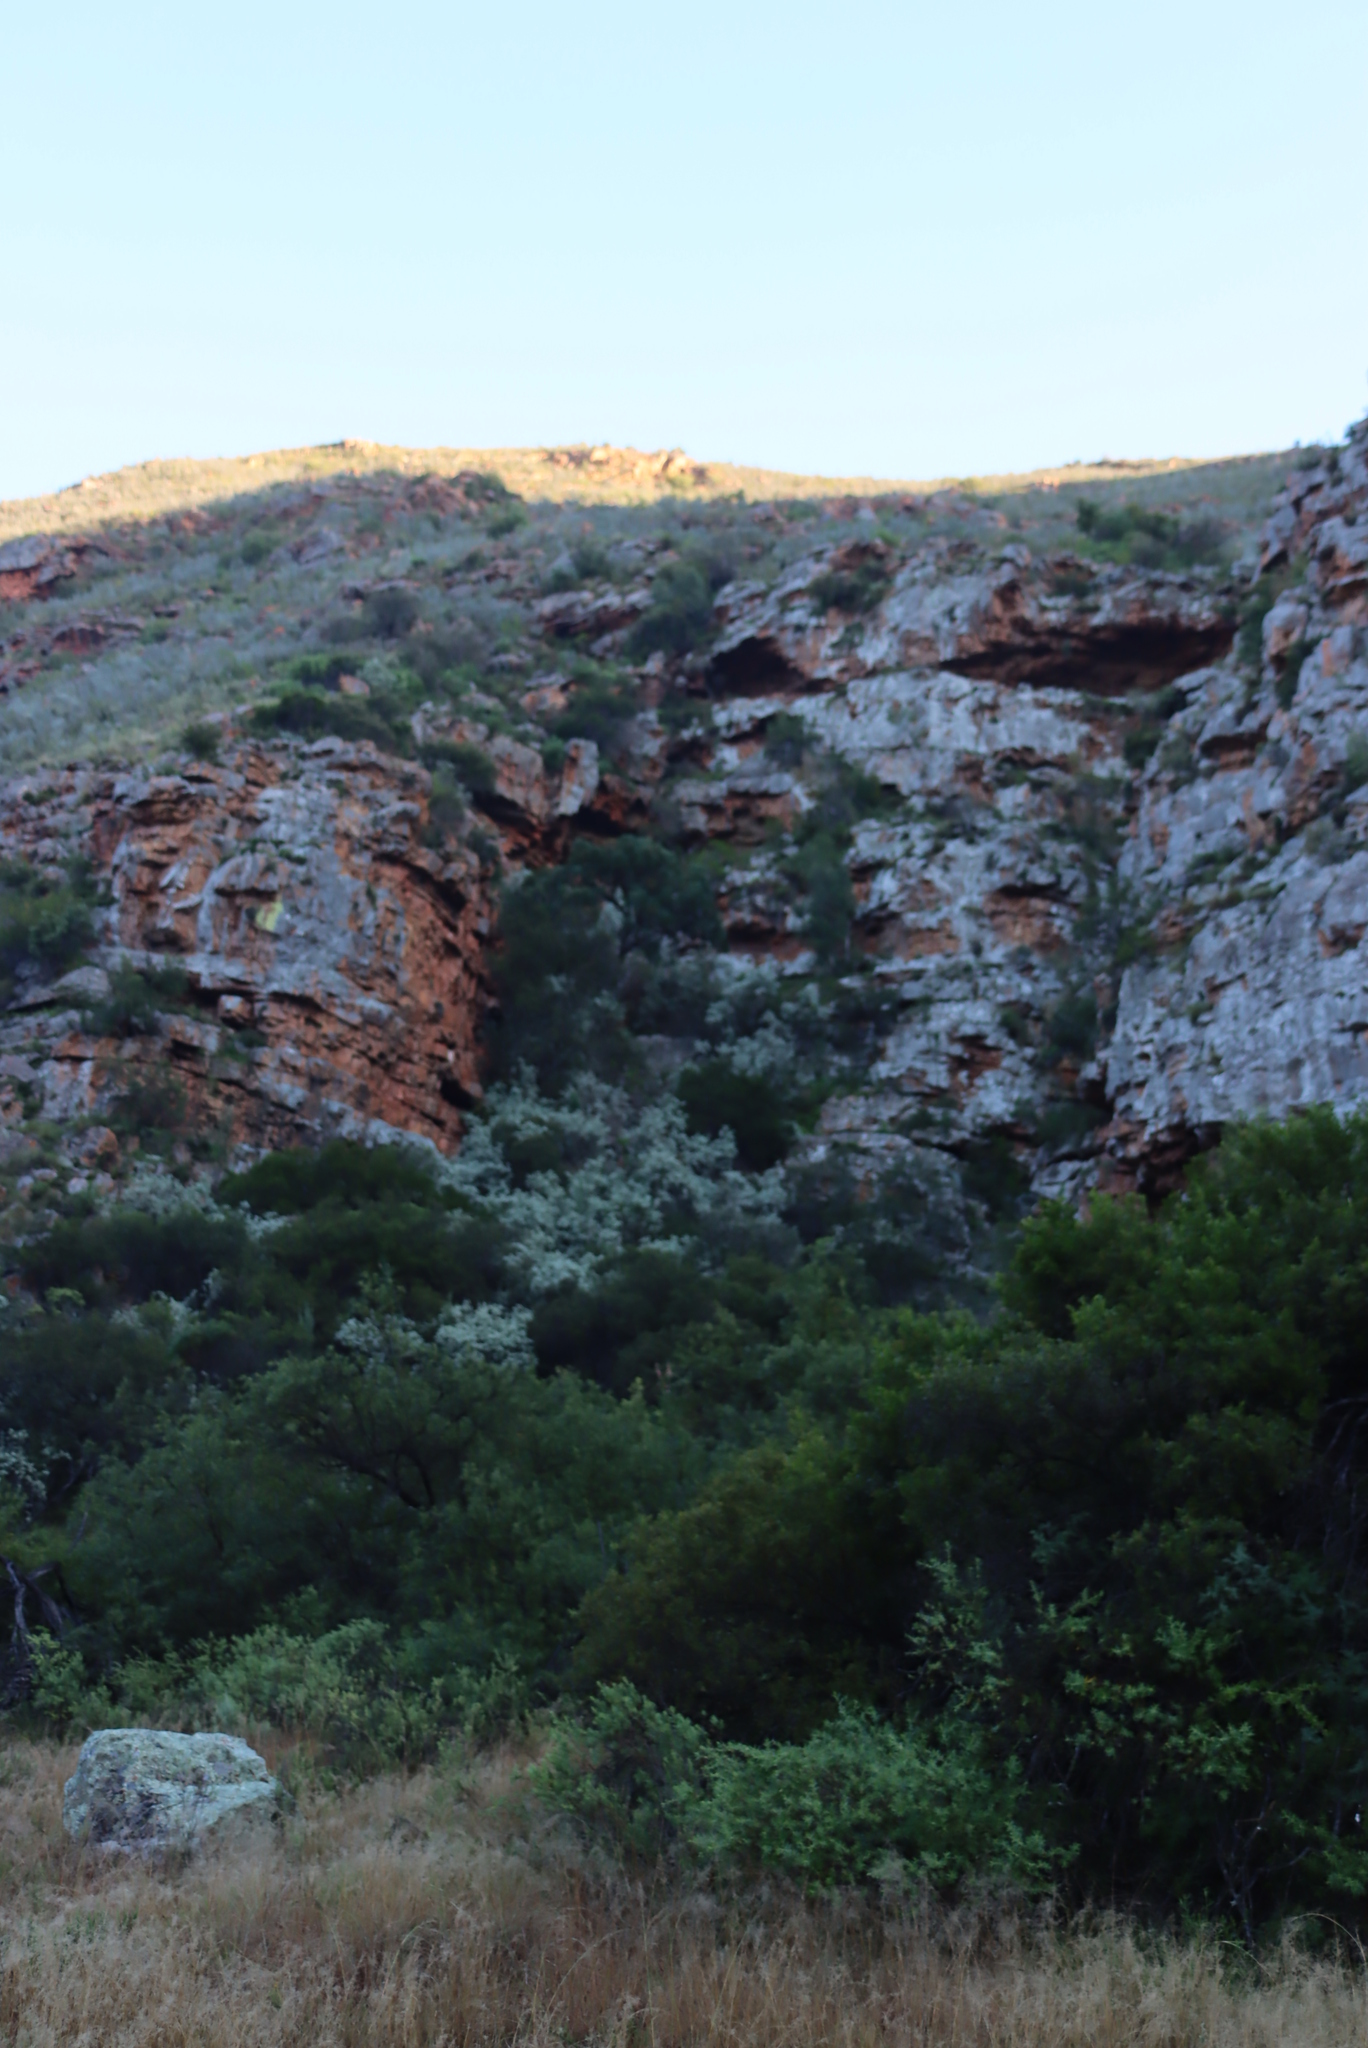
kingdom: Plantae
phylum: Tracheophyta
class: Magnoliopsida
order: Sapindales
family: Anacardiaceae
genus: Searsia
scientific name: Searsia lancea
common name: Cashew
